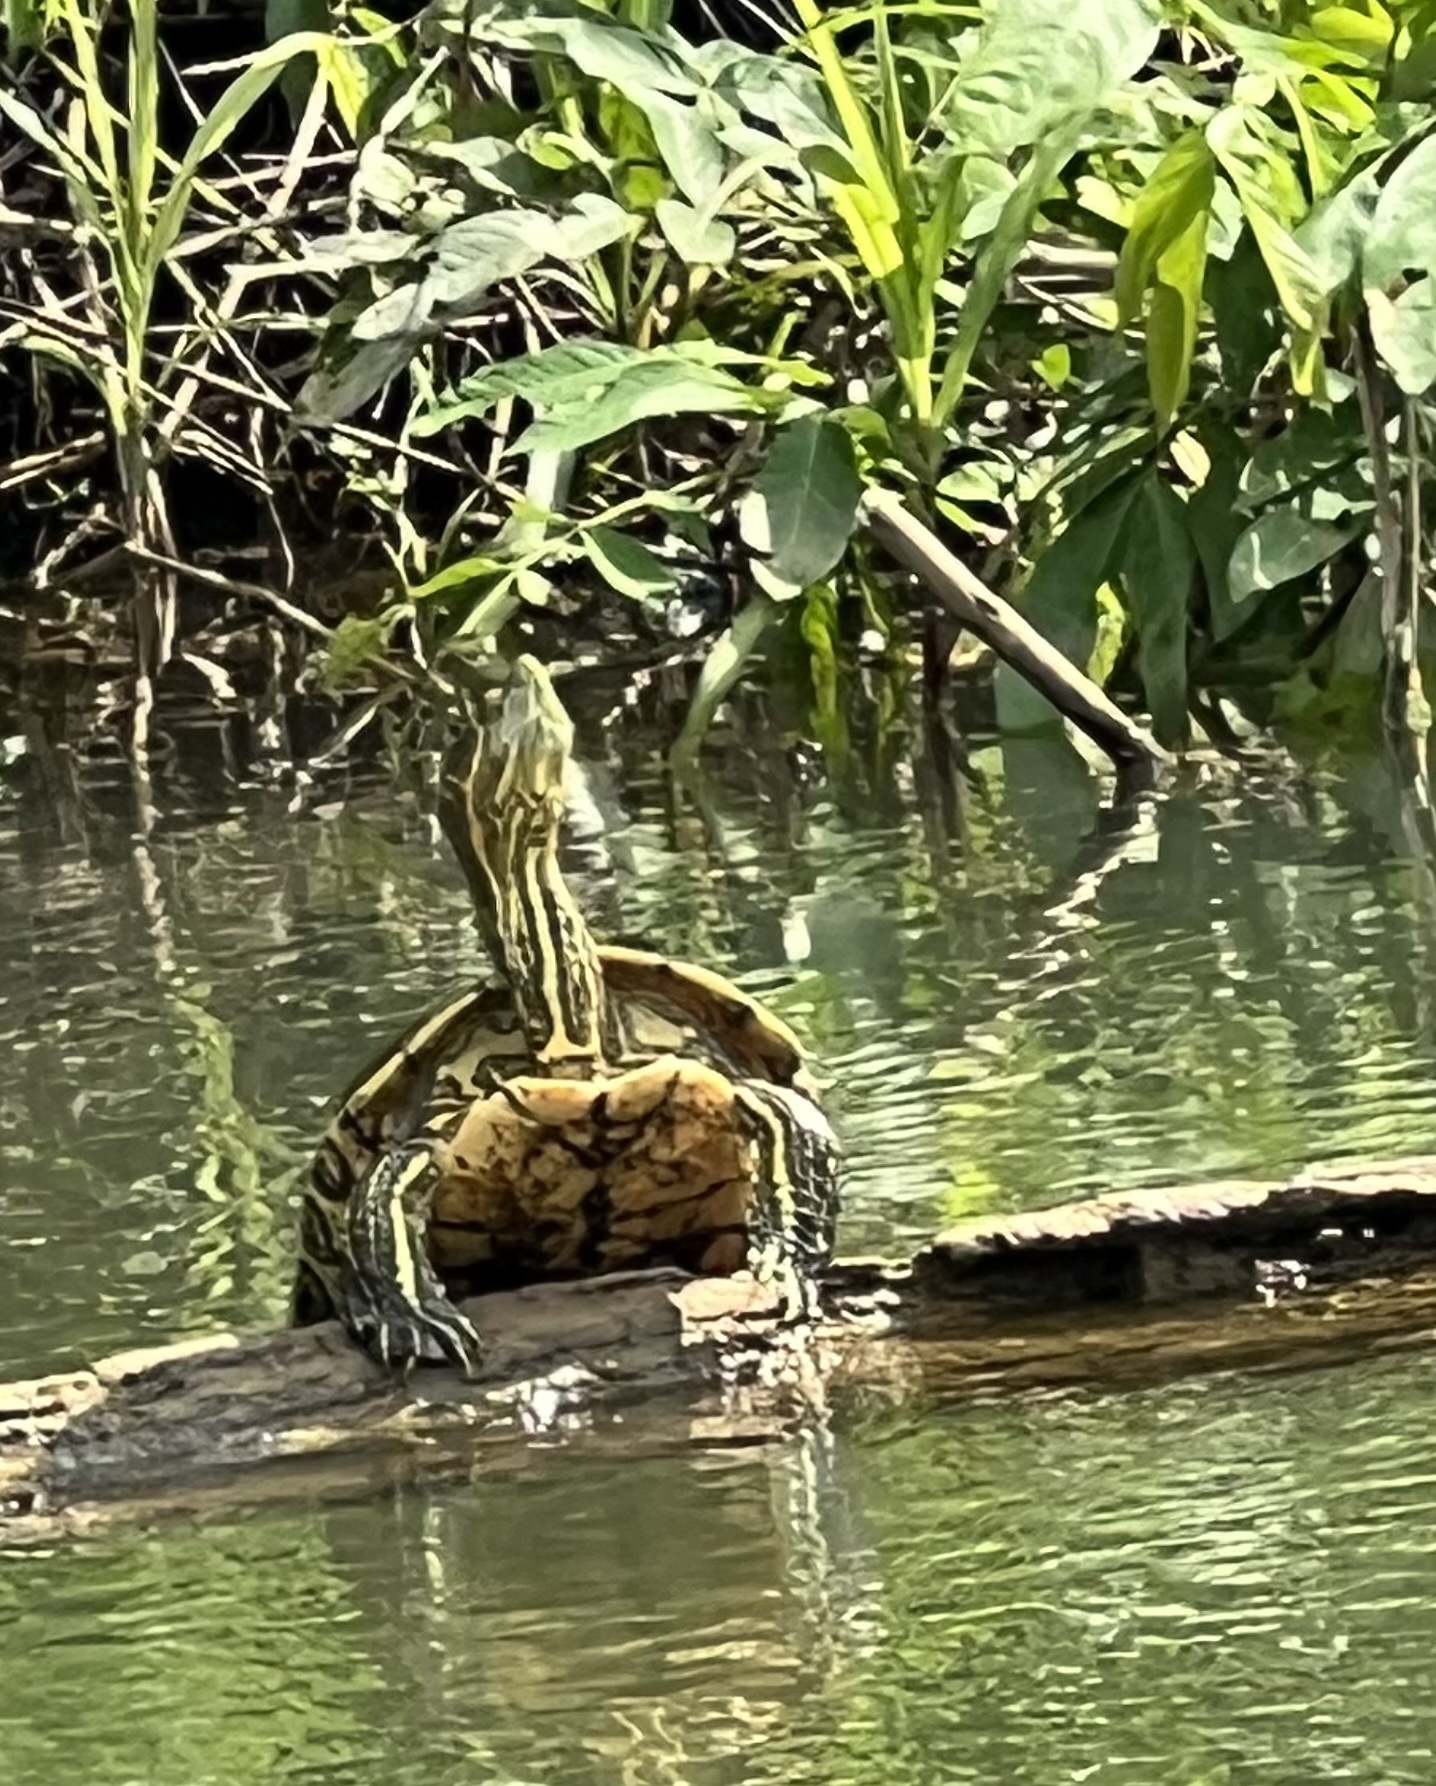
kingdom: Animalia
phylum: Chordata
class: Testudines
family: Emydidae
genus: Trachemys
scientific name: Trachemys venusta
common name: Mesoamerican slider
